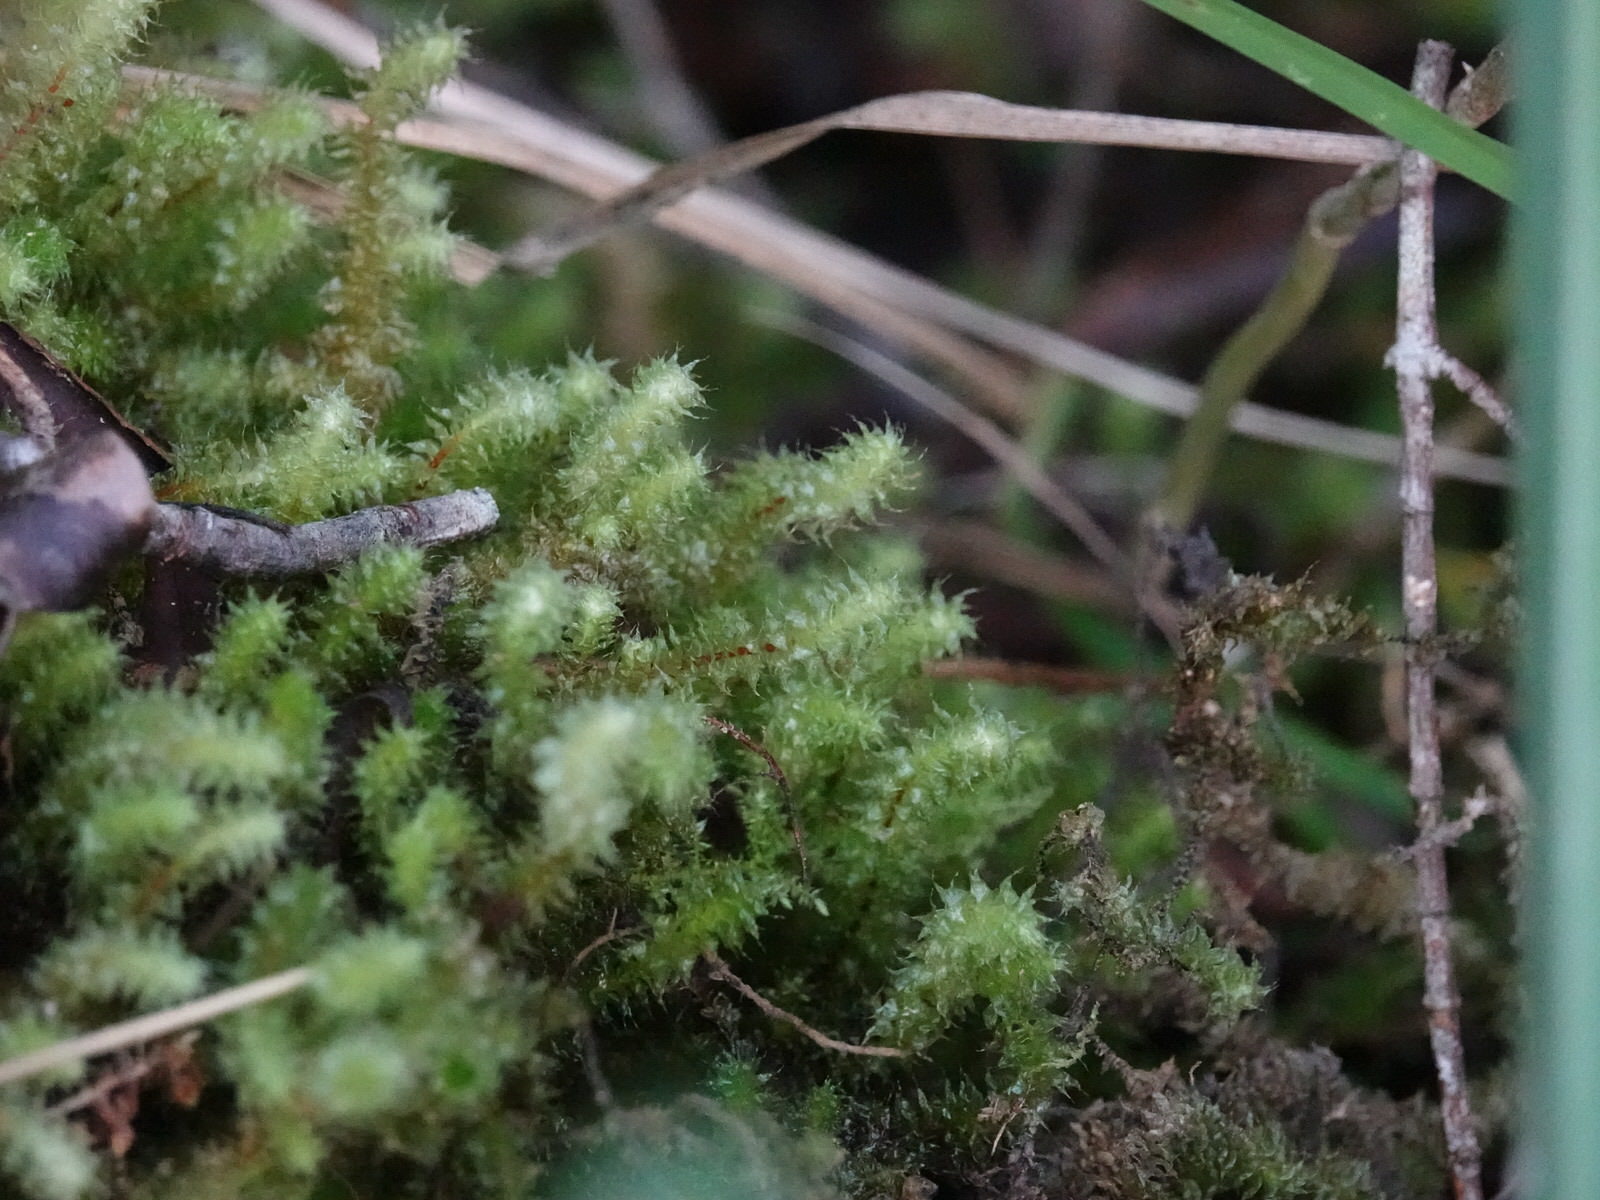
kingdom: Plantae
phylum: Bryophyta
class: Bryopsida
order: Ptychomniales
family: Ptychomniaceae
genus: Ptychomnion
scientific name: Ptychomnion aciculare
